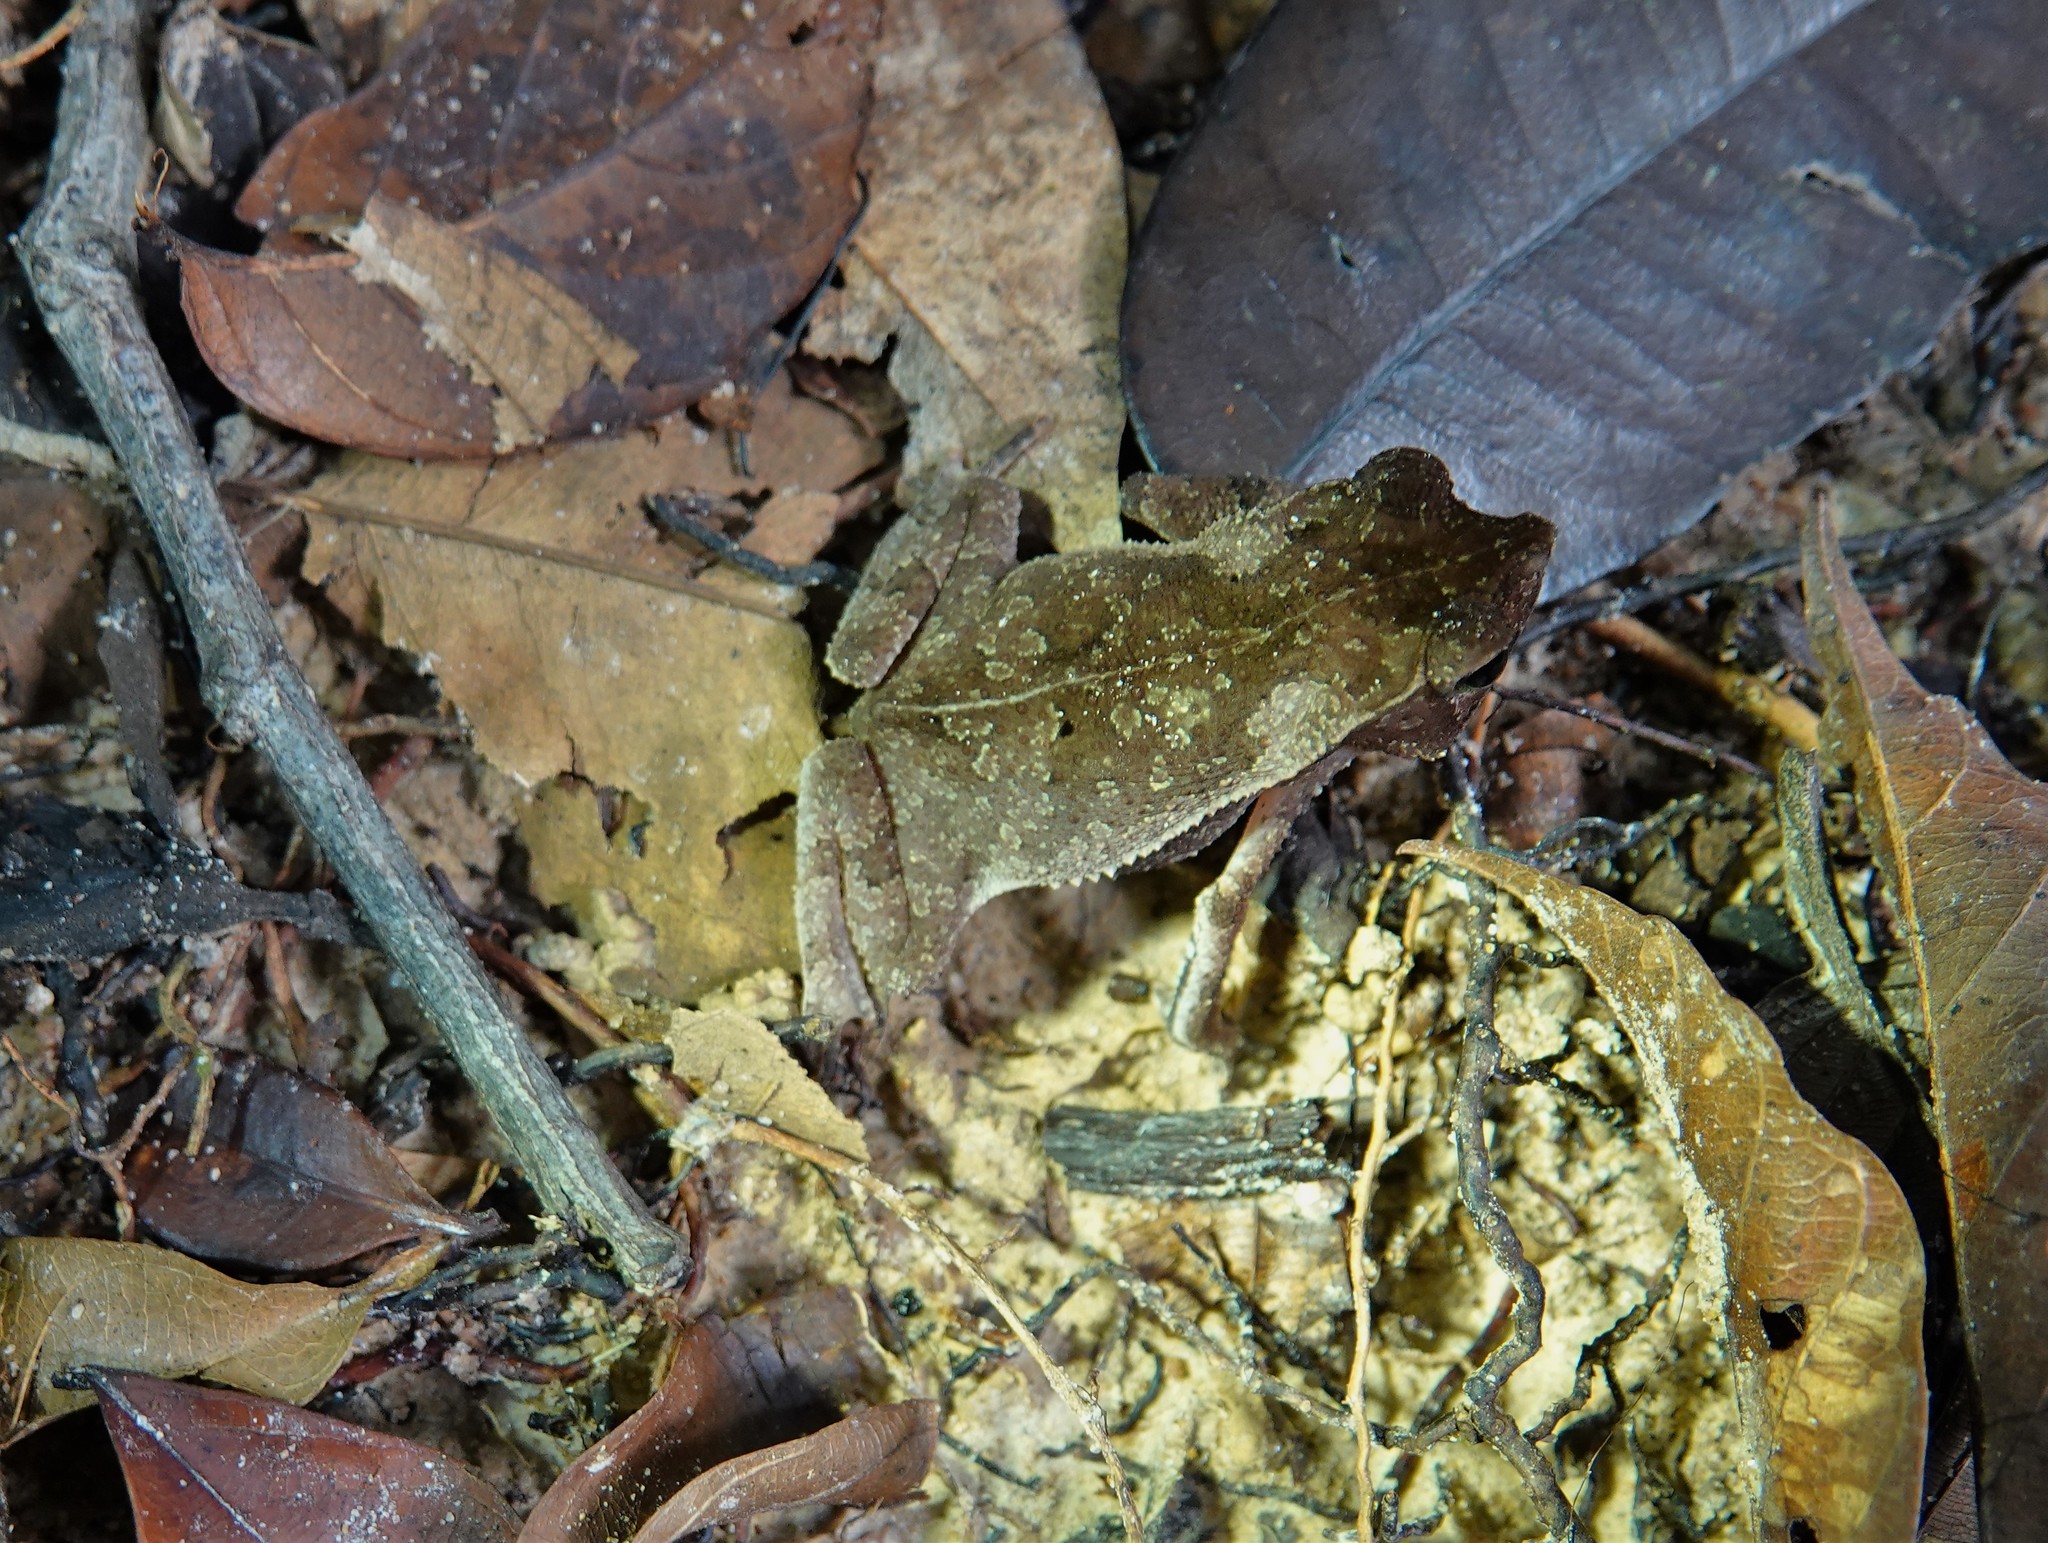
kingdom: Animalia
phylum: Chordata
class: Amphibia
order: Anura
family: Bufonidae
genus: Rhinella
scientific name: Rhinella margaritifera
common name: Mitred toad
